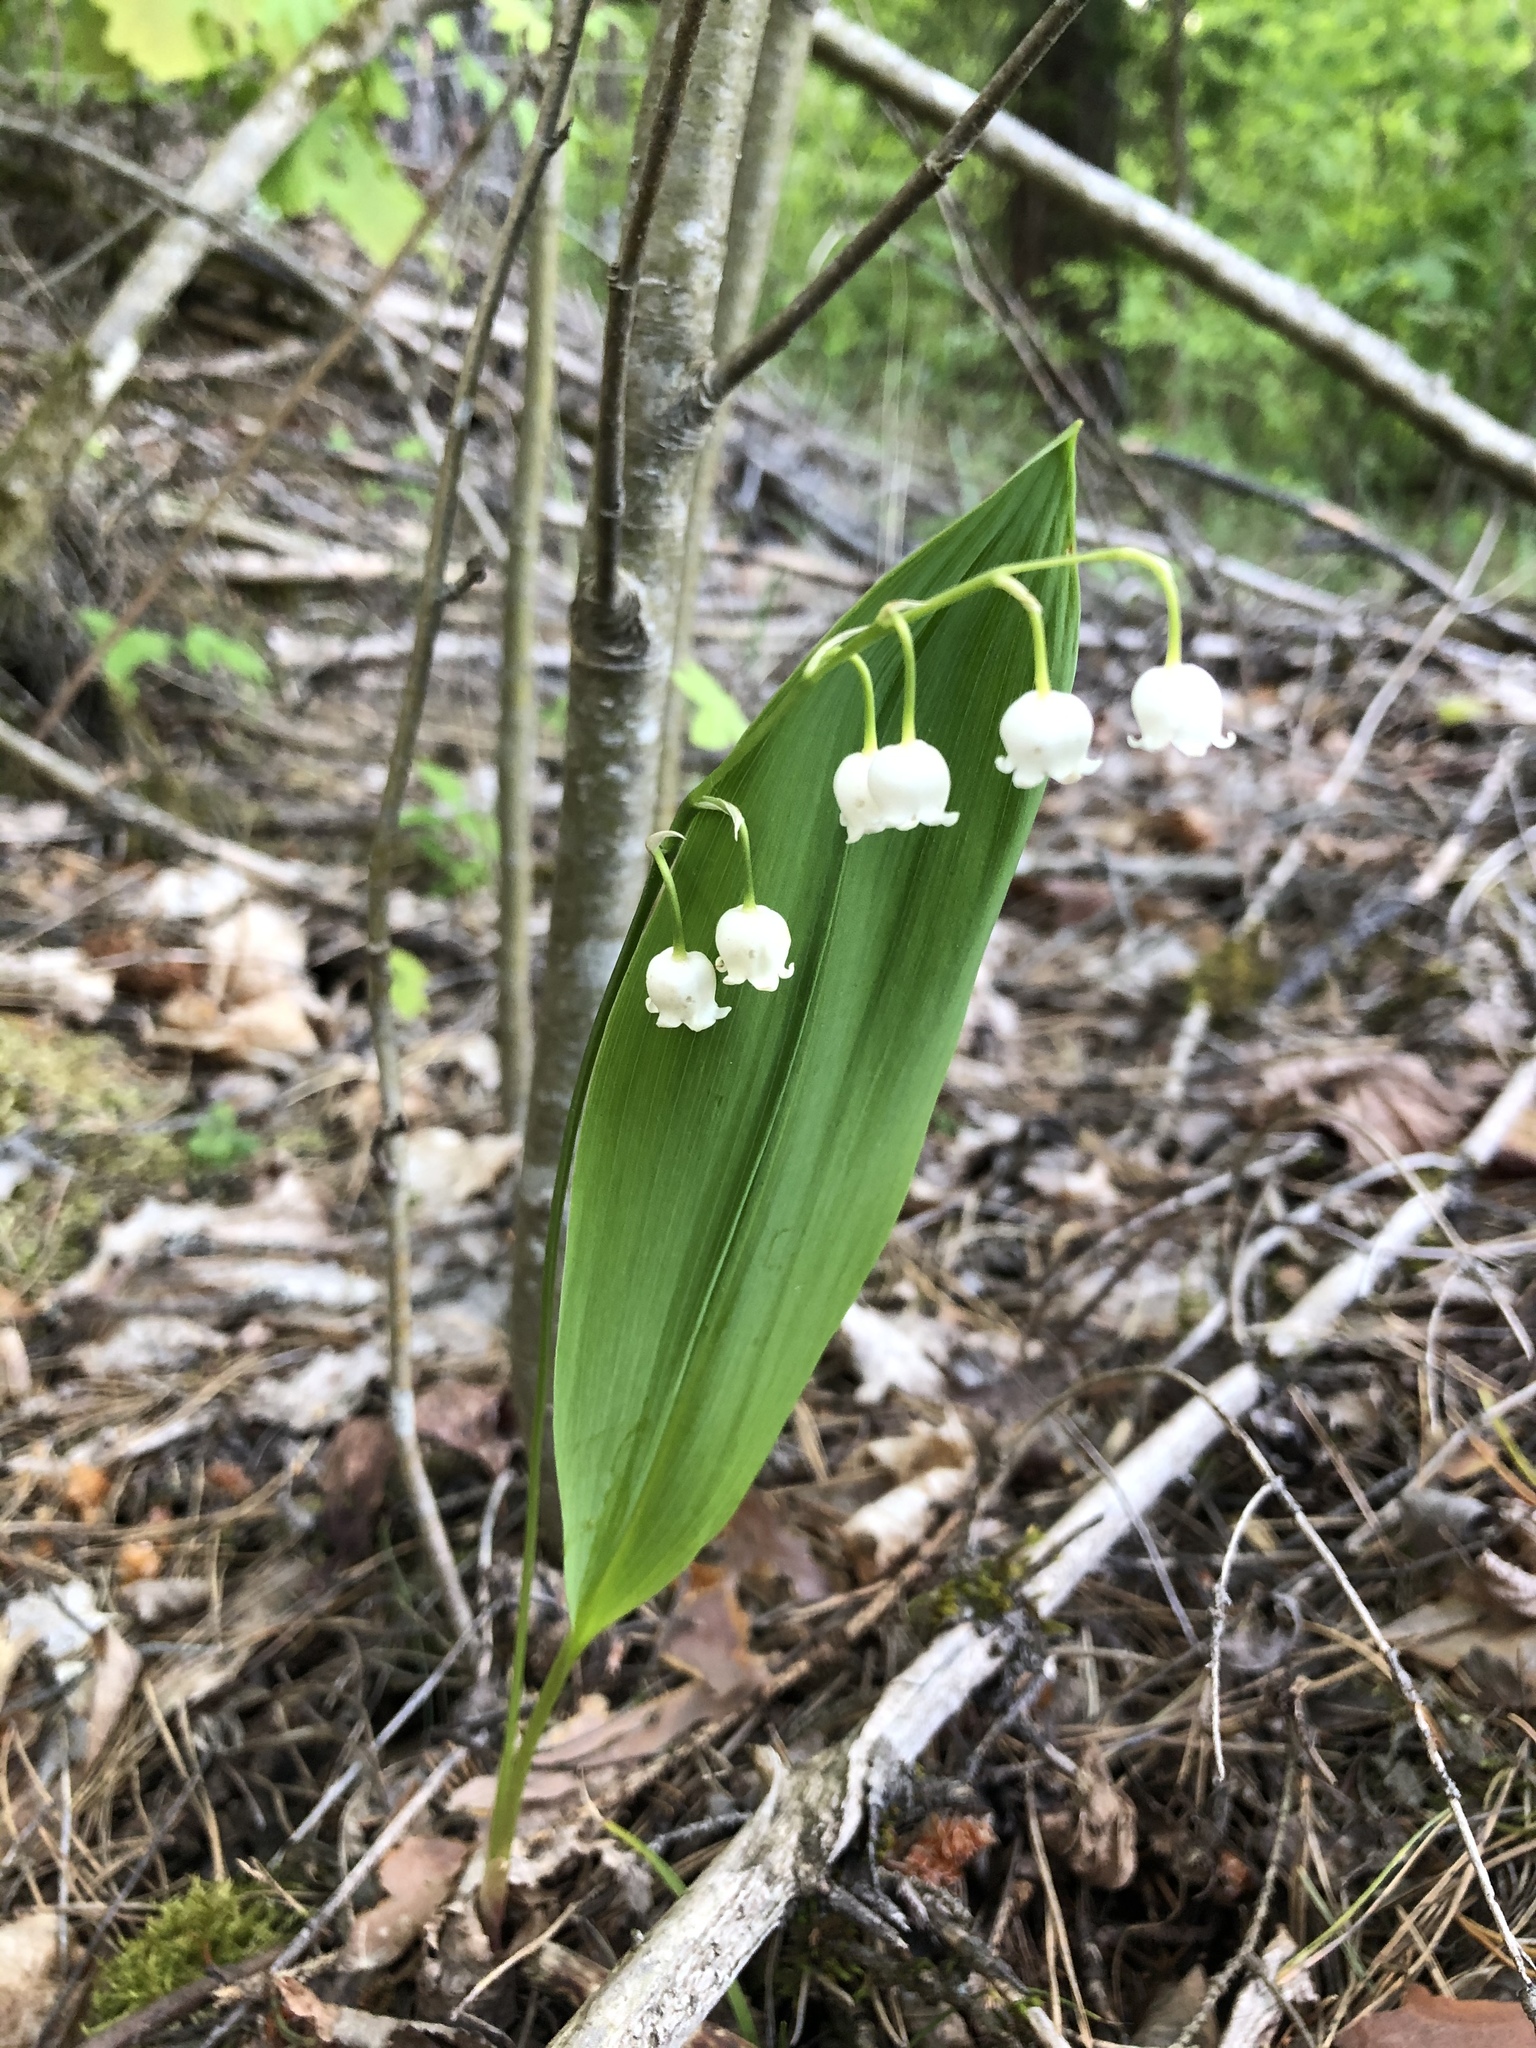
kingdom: Plantae
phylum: Tracheophyta
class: Liliopsida
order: Asparagales
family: Asparagaceae
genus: Convallaria
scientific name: Convallaria majalis
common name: Lily-of-the-valley
